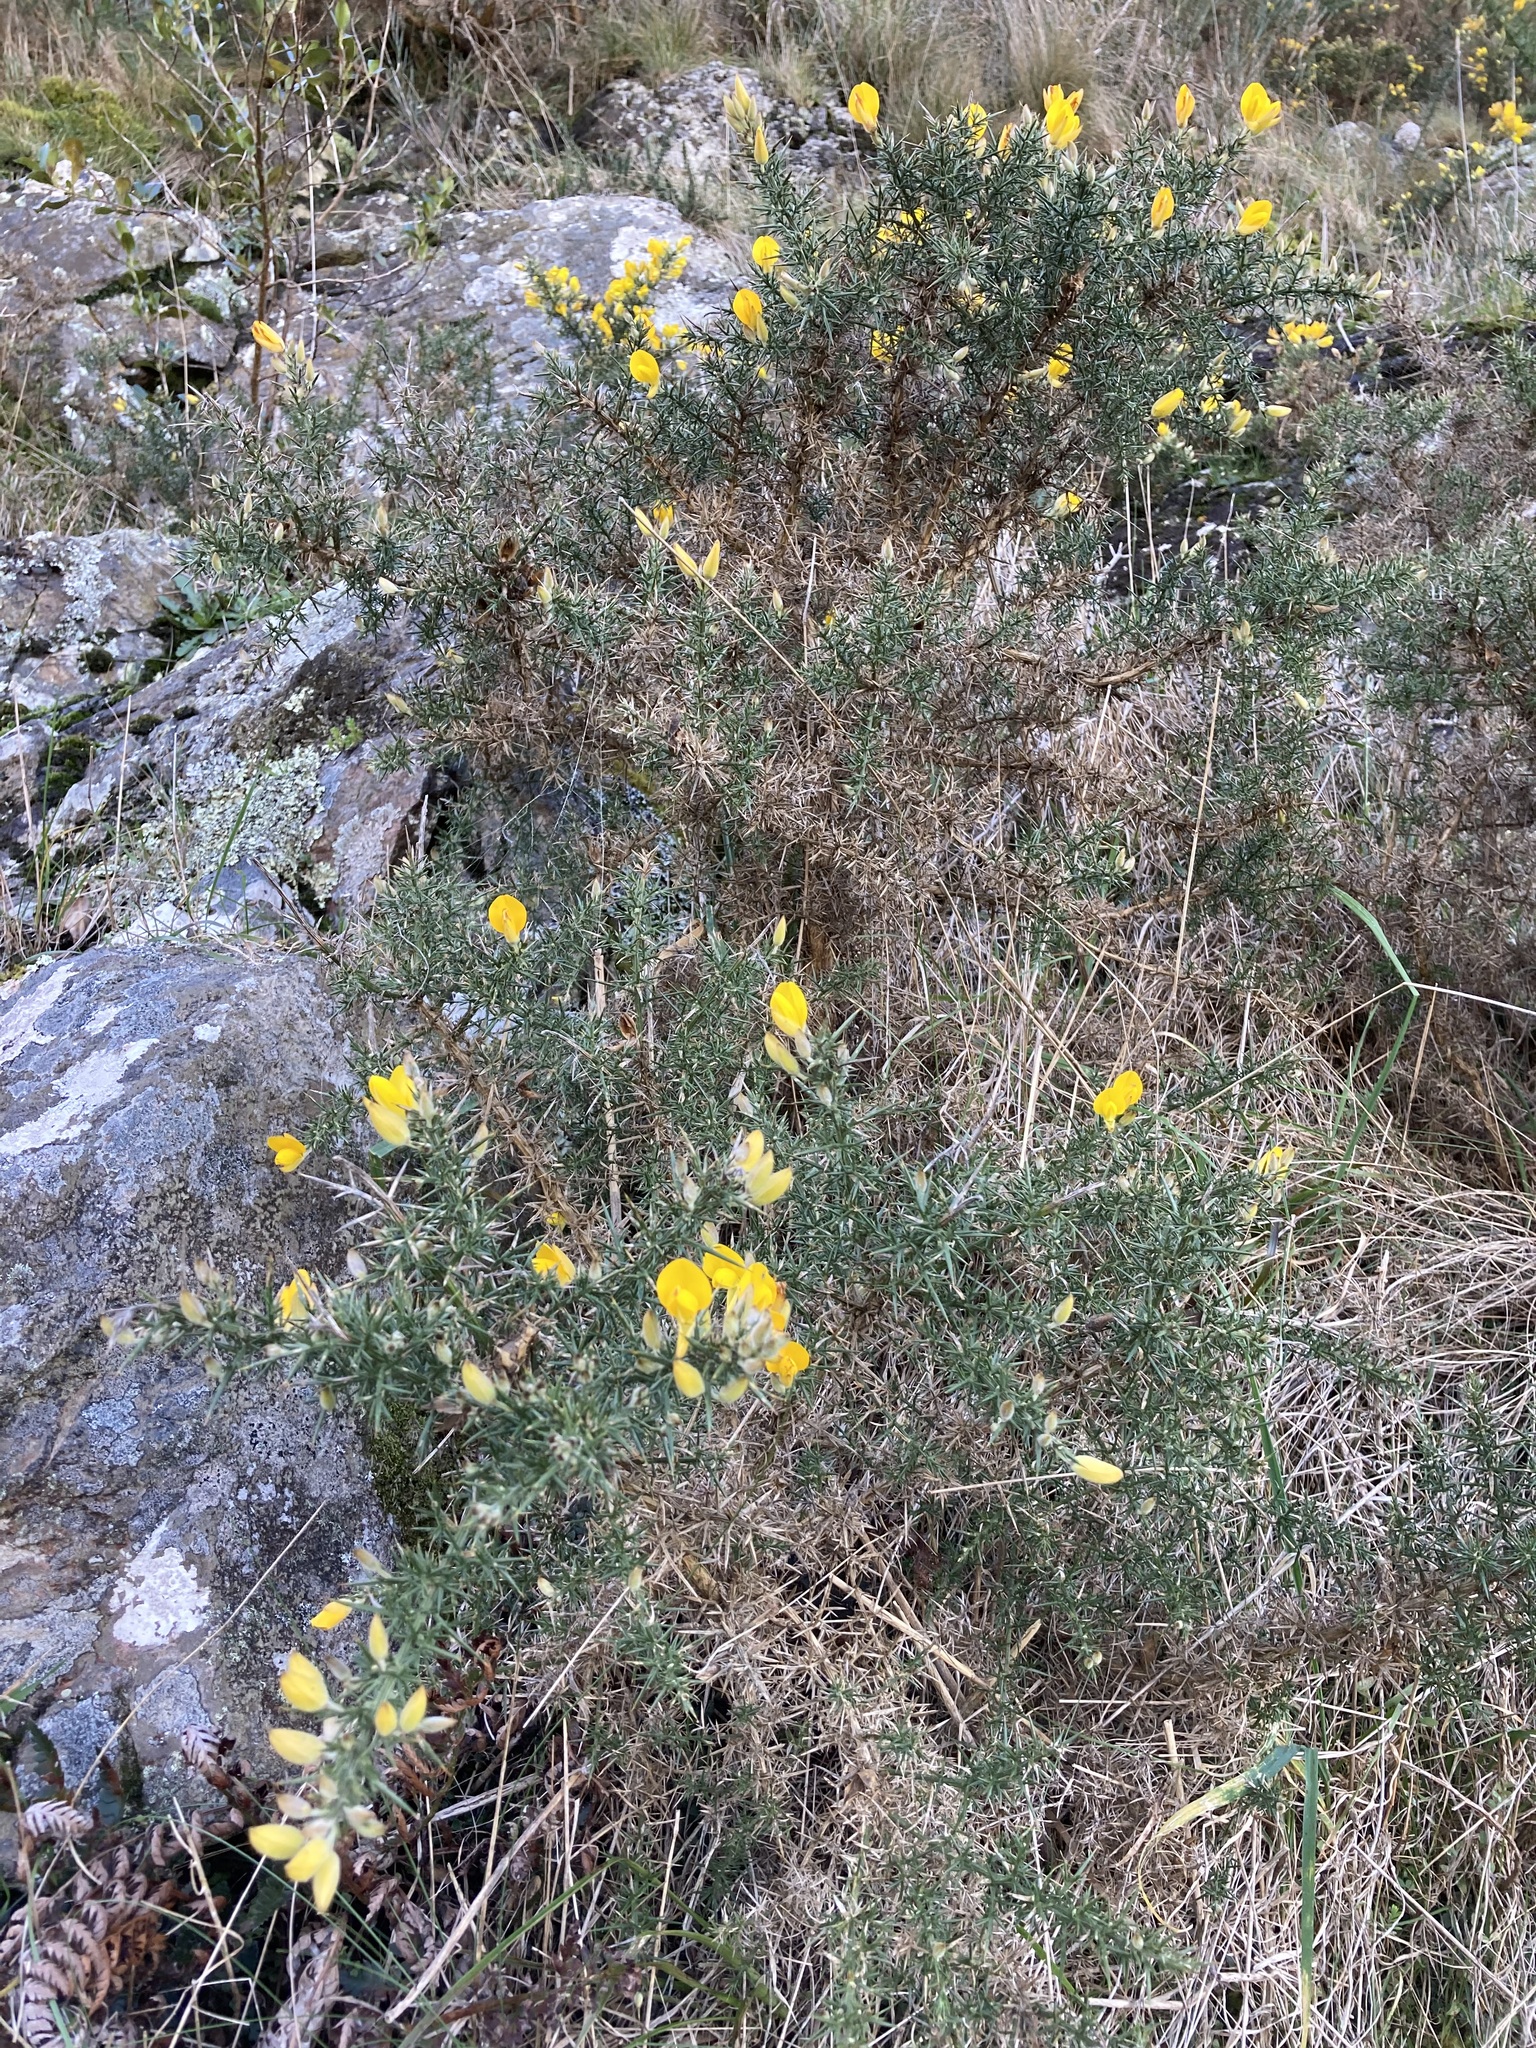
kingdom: Plantae
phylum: Tracheophyta
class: Magnoliopsida
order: Fabales
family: Fabaceae
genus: Ulex
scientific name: Ulex europaeus
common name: Common gorse
